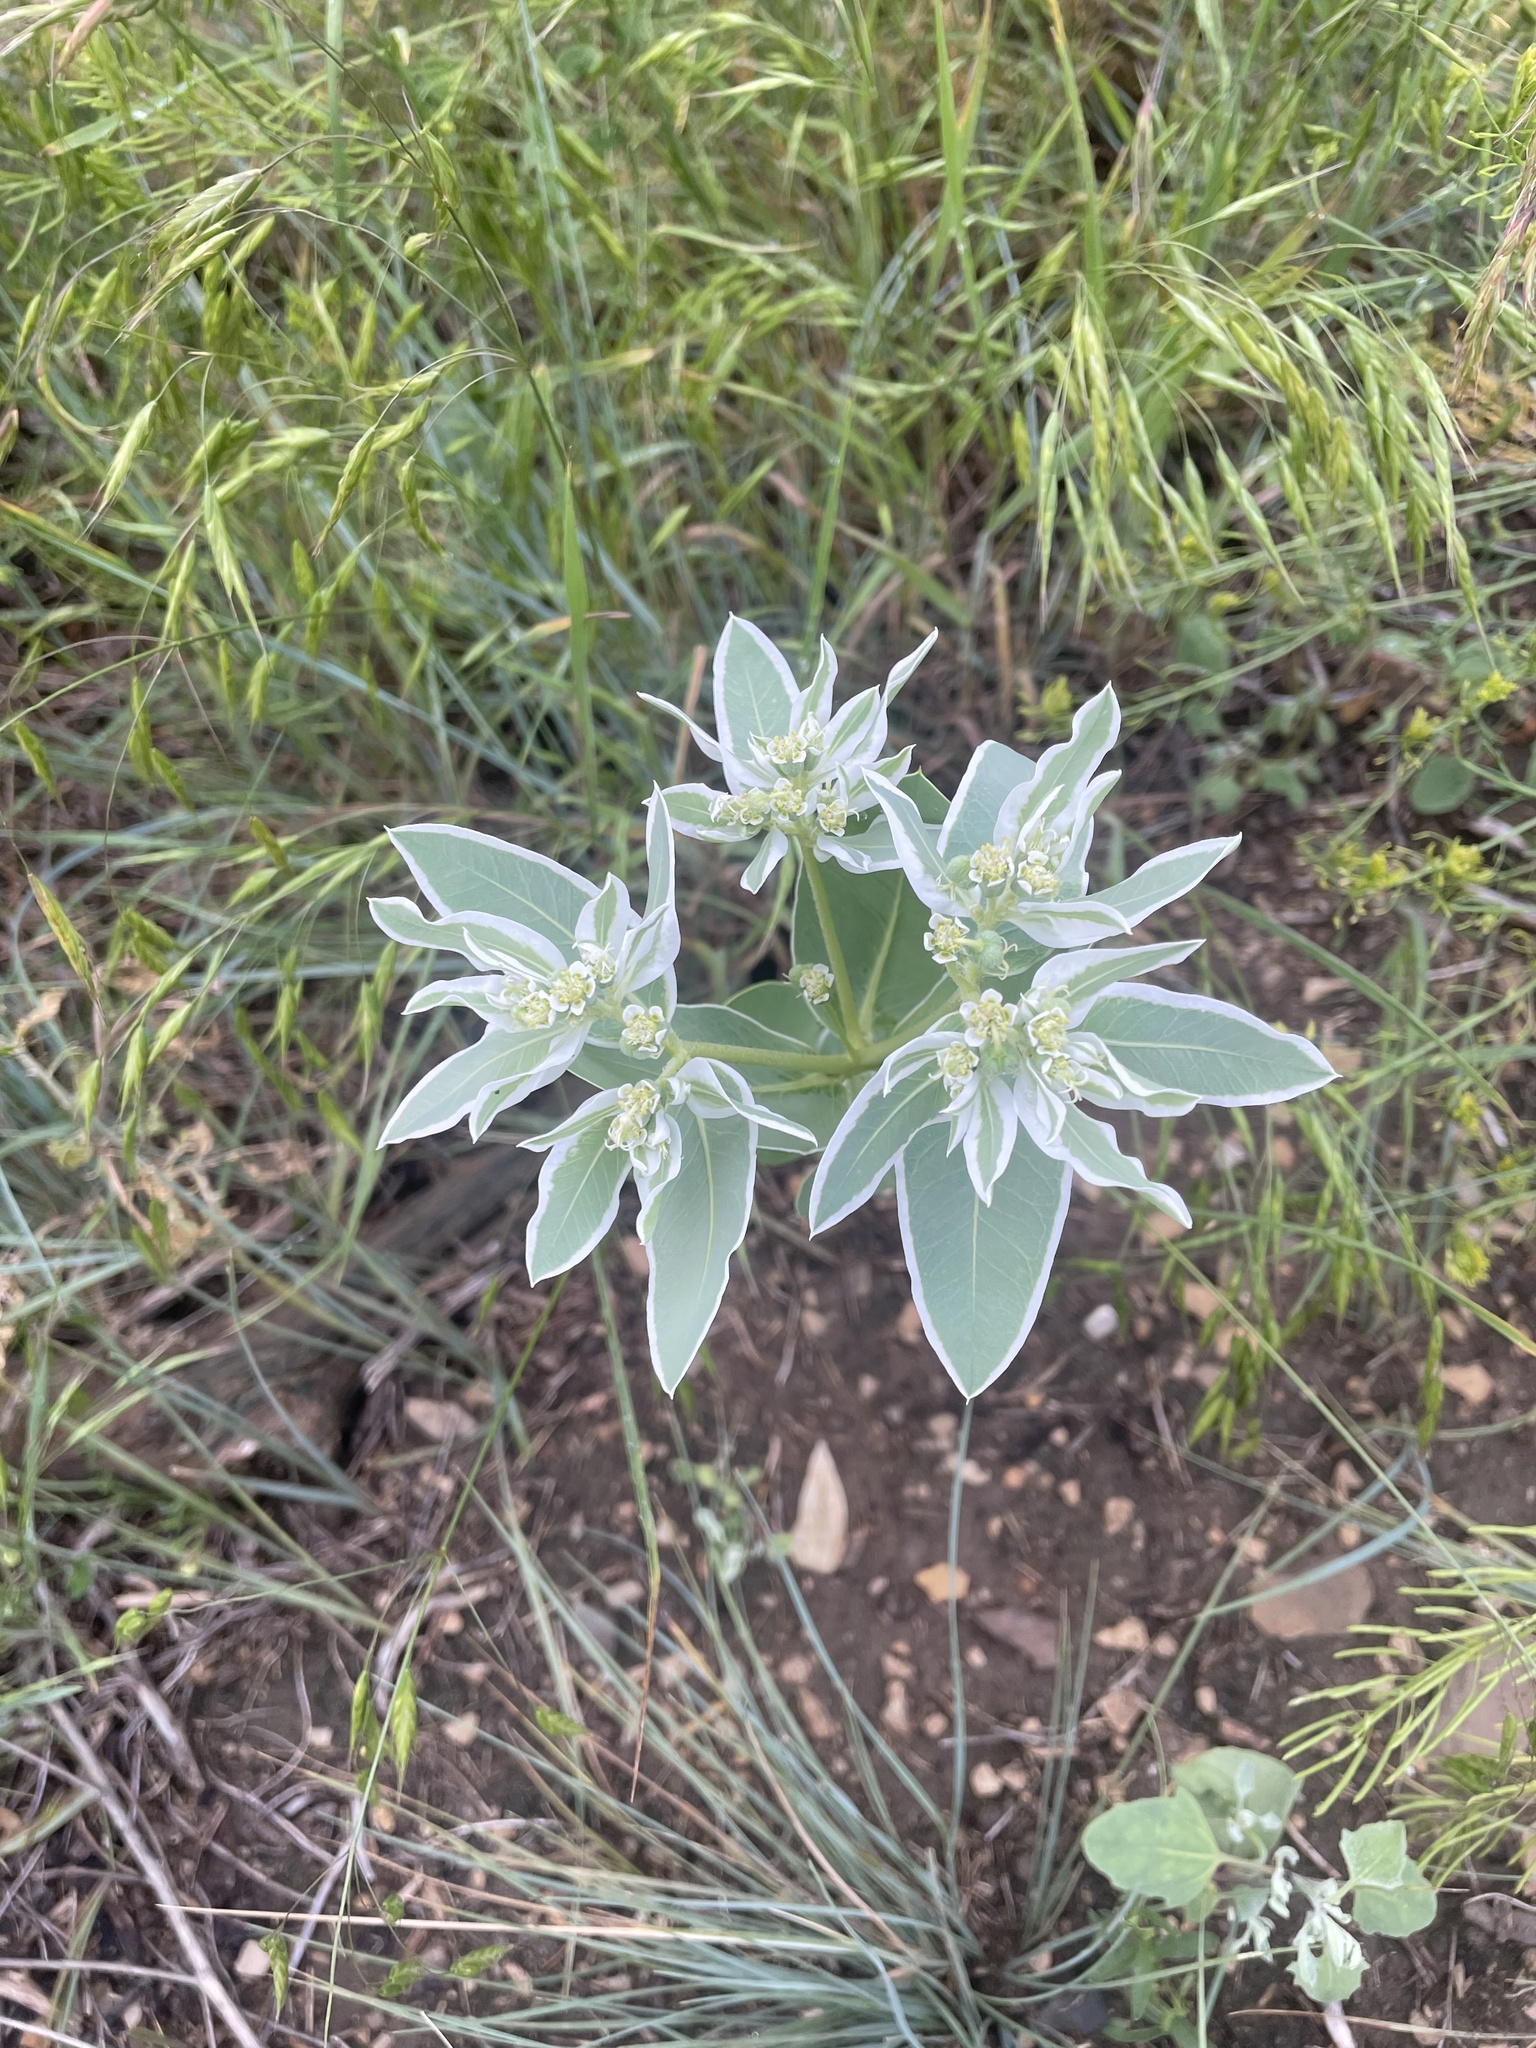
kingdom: Plantae
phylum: Tracheophyta
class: Magnoliopsida
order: Malpighiales
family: Euphorbiaceae
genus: Euphorbia
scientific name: Euphorbia marginata
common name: Ghostweed
